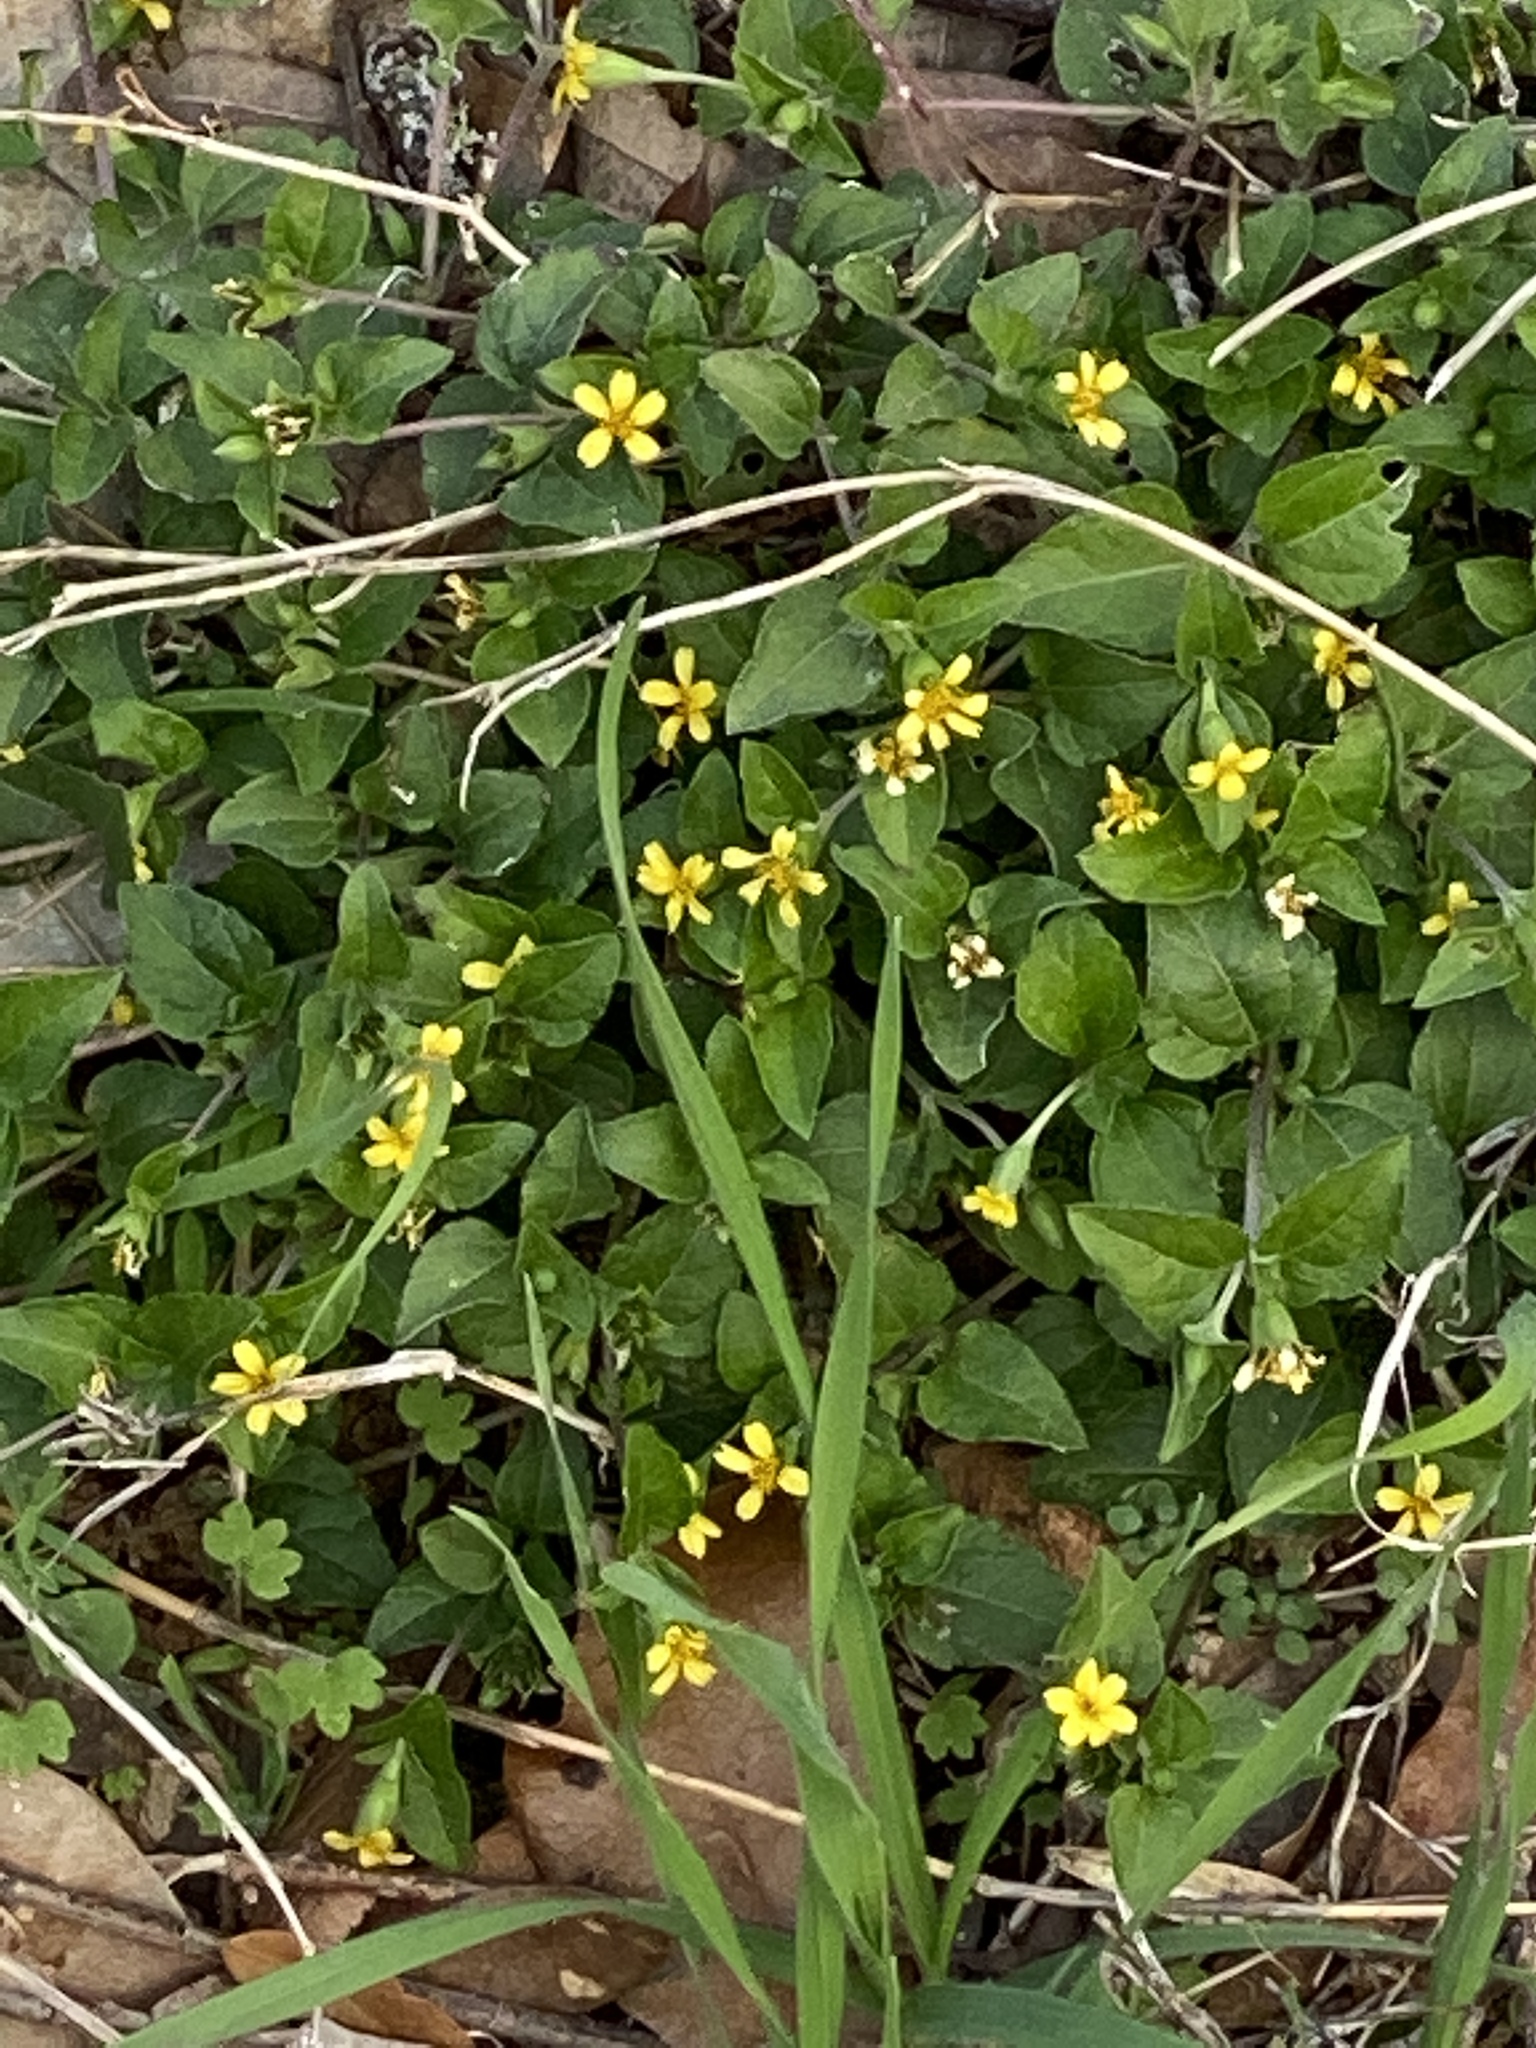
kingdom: Plantae
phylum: Tracheophyta
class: Magnoliopsida
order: Asterales
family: Asteraceae
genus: Calyptocarpus
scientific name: Calyptocarpus vialis
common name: Straggler daisy
